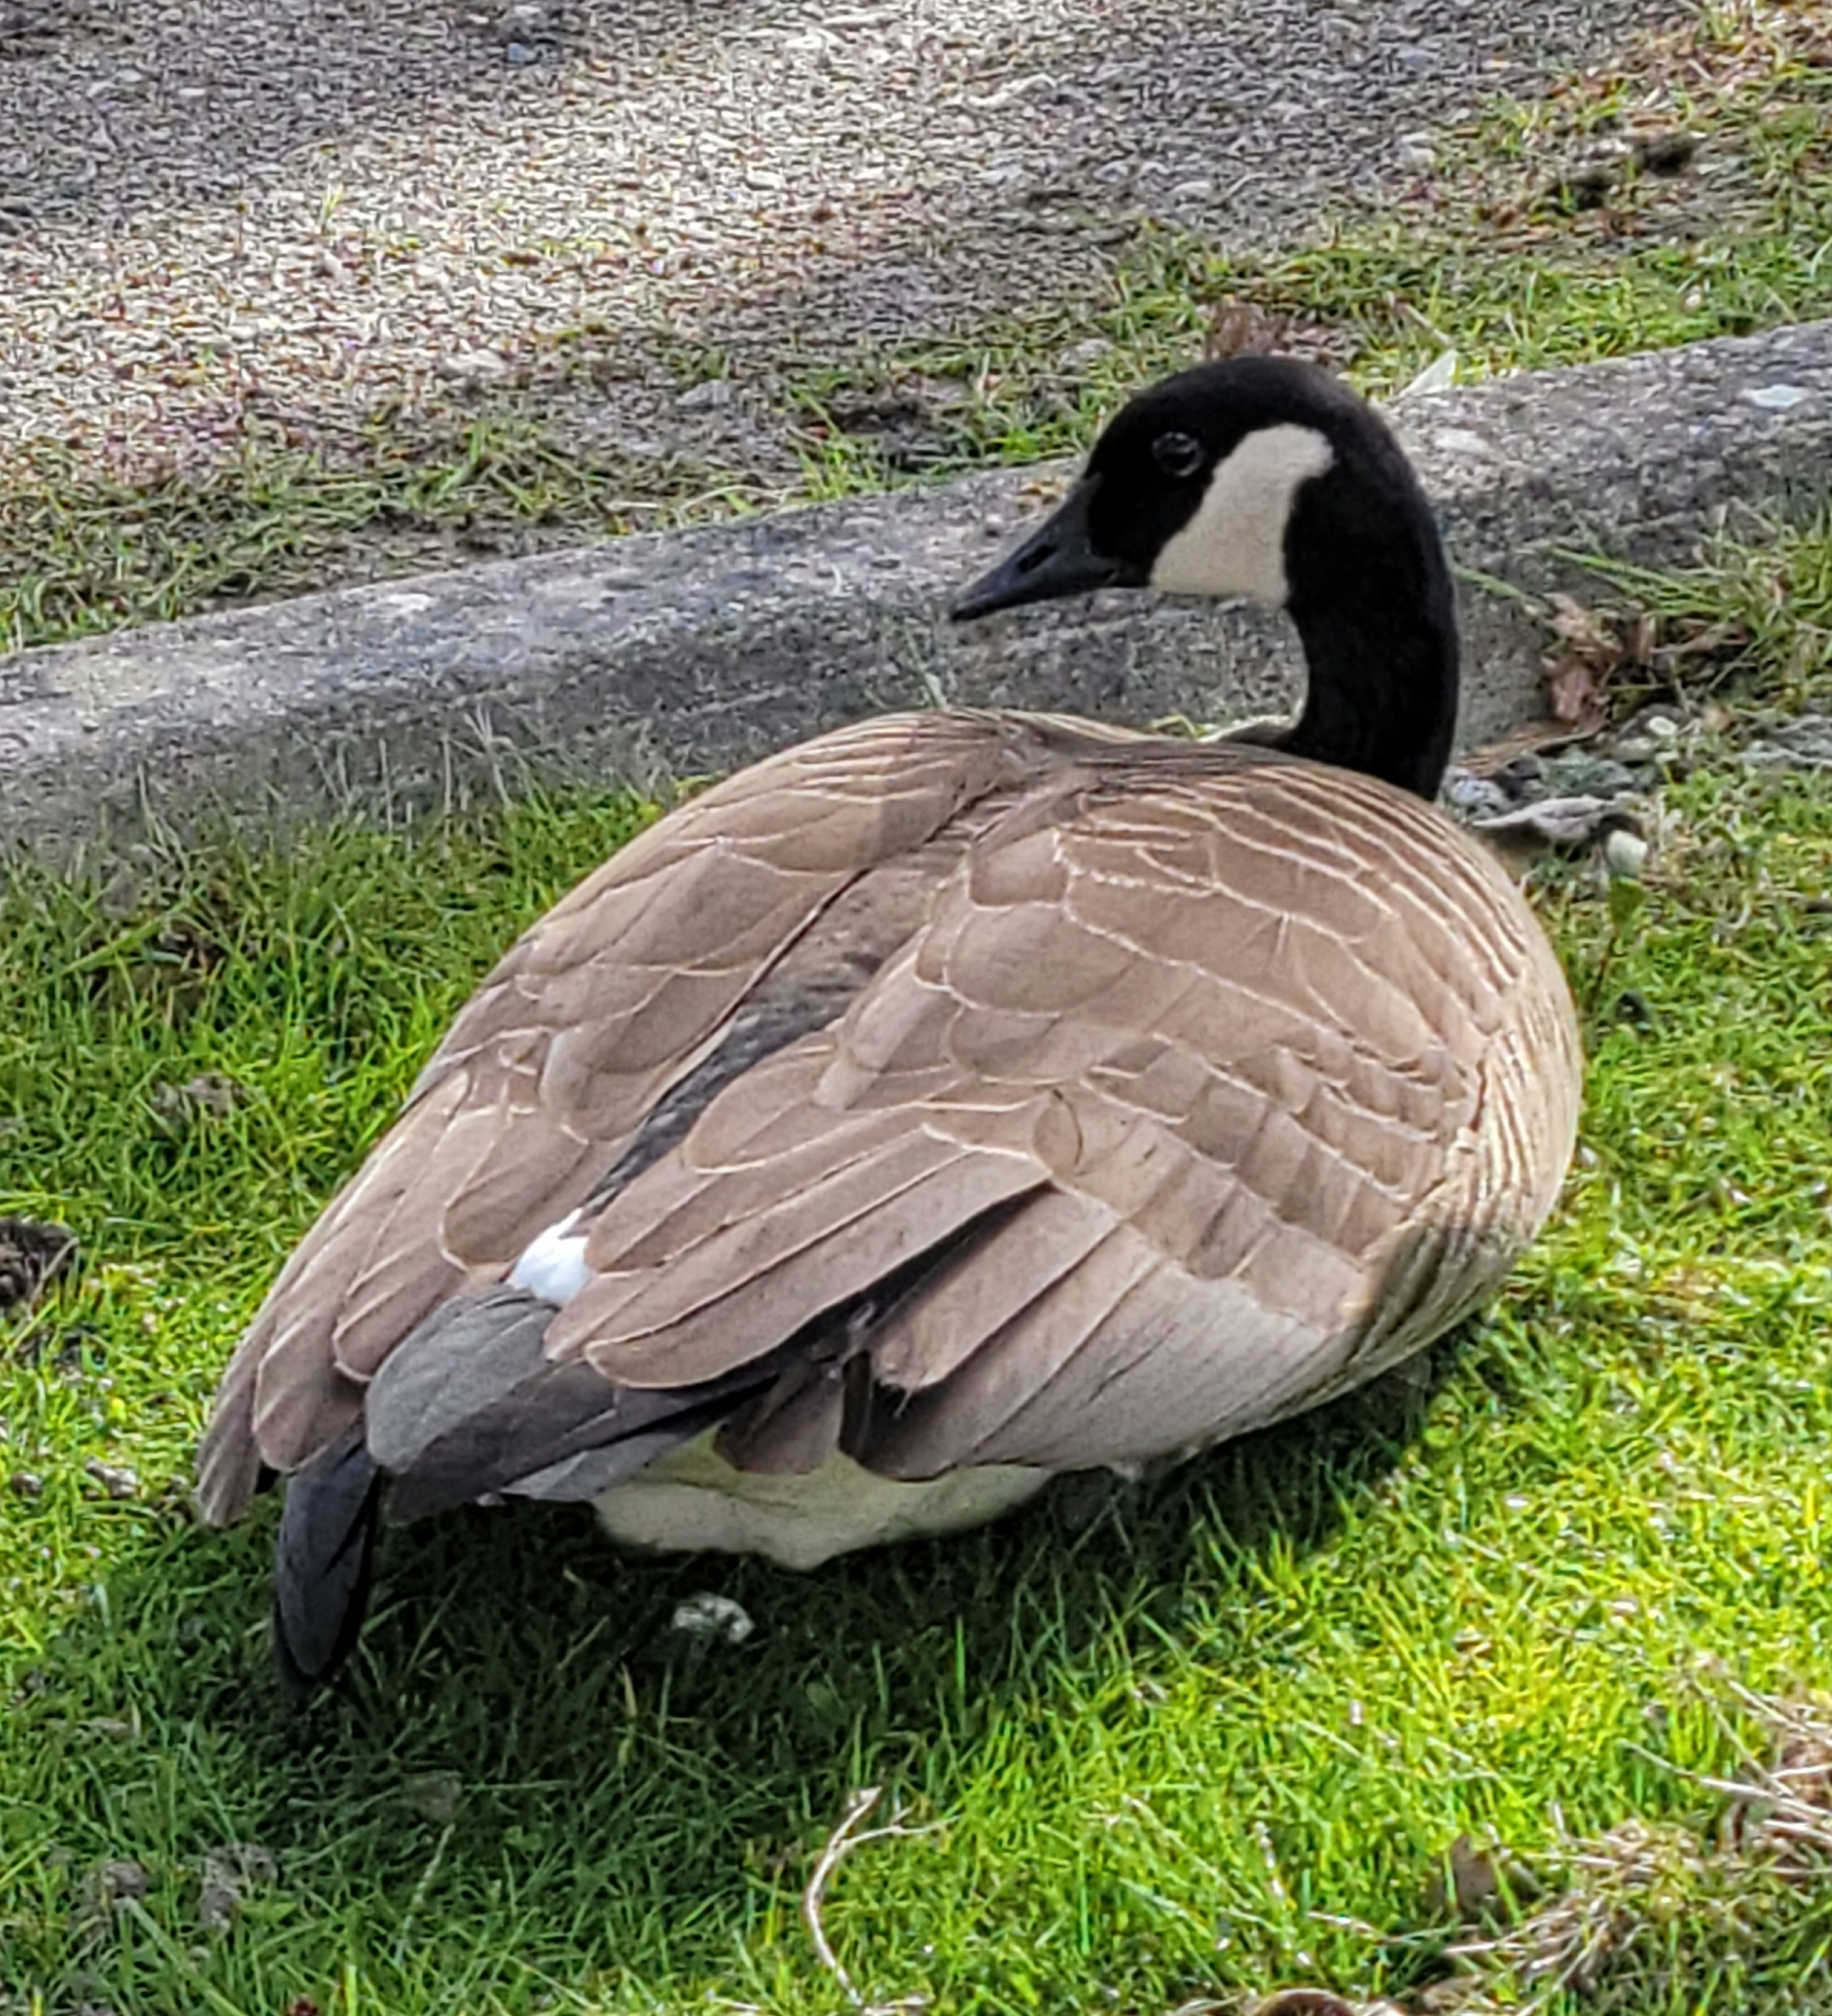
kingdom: Animalia
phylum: Chordata
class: Aves
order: Anseriformes
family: Anatidae
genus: Branta
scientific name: Branta canadensis
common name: Canada goose
